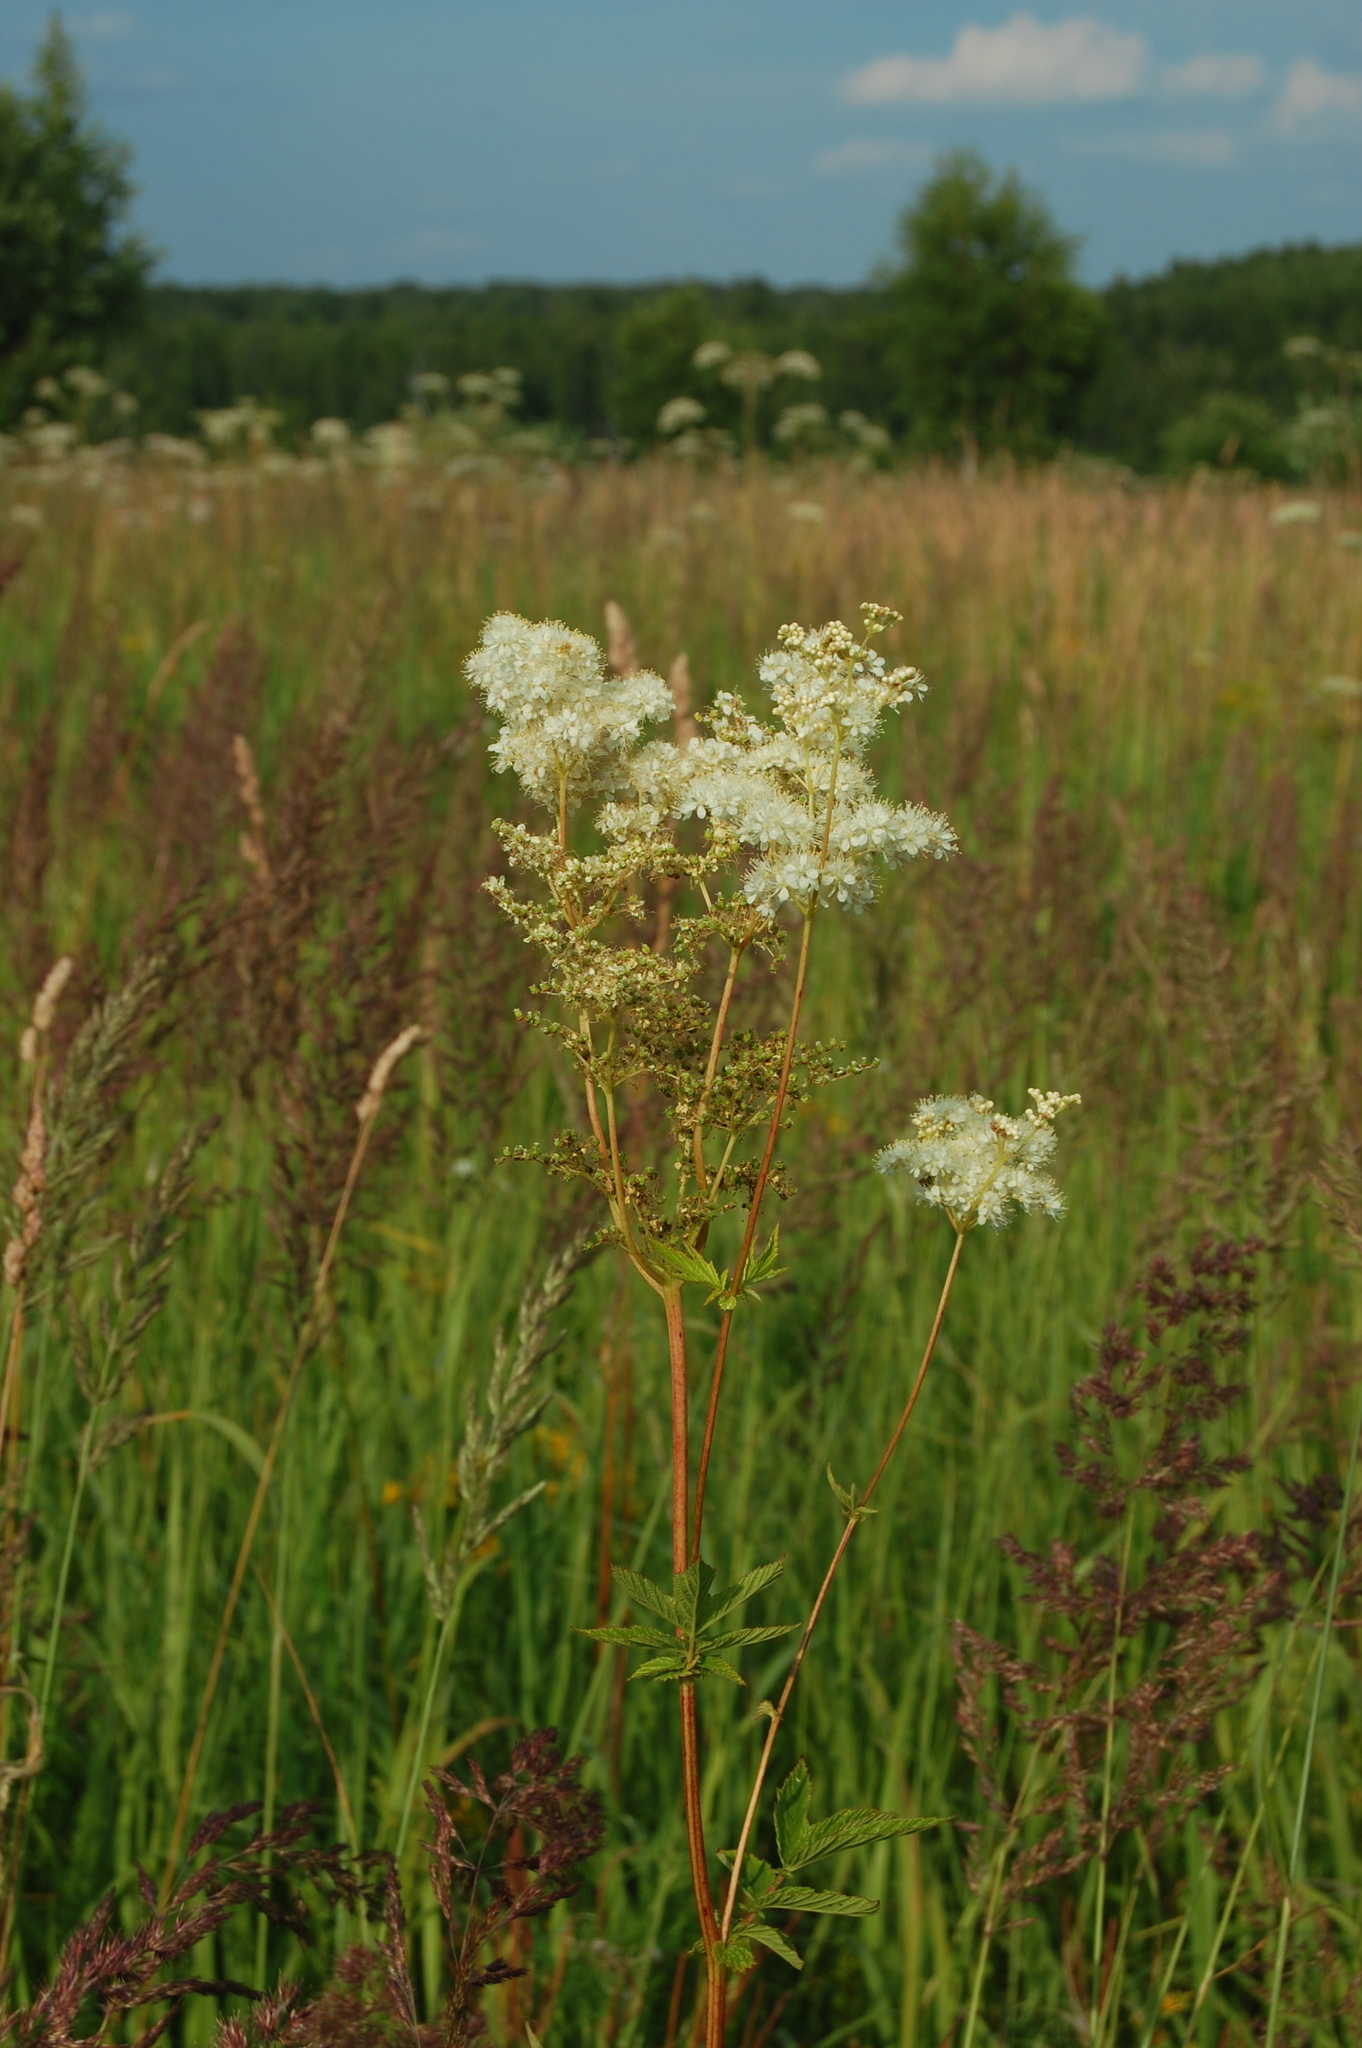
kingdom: Plantae
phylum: Tracheophyta
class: Magnoliopsida
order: Rosales
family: Rosaceae
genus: Filipendula
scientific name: Filipendula ulmaria
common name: Meadowsweet
